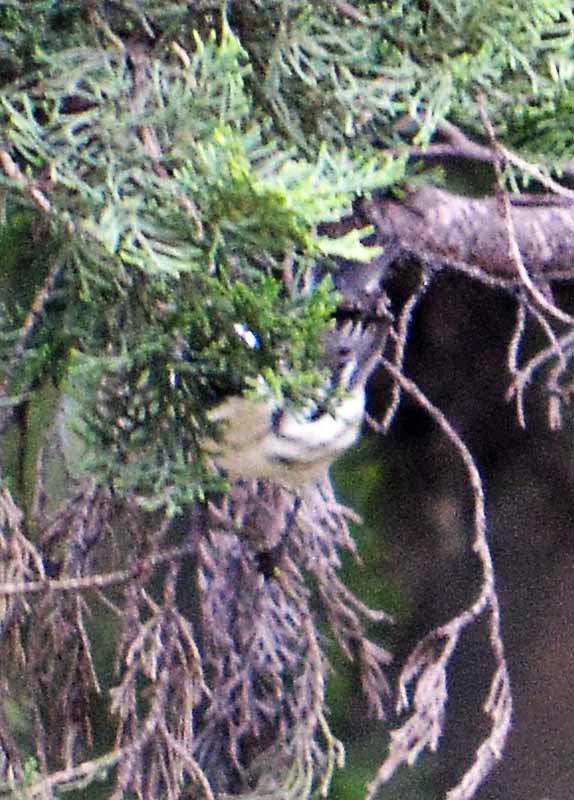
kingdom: Animalia
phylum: Chordata
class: Aves
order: Passeriformes
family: Parulidae
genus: Mniotilta
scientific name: Mniotilta varia
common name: Black-and-white warbler
